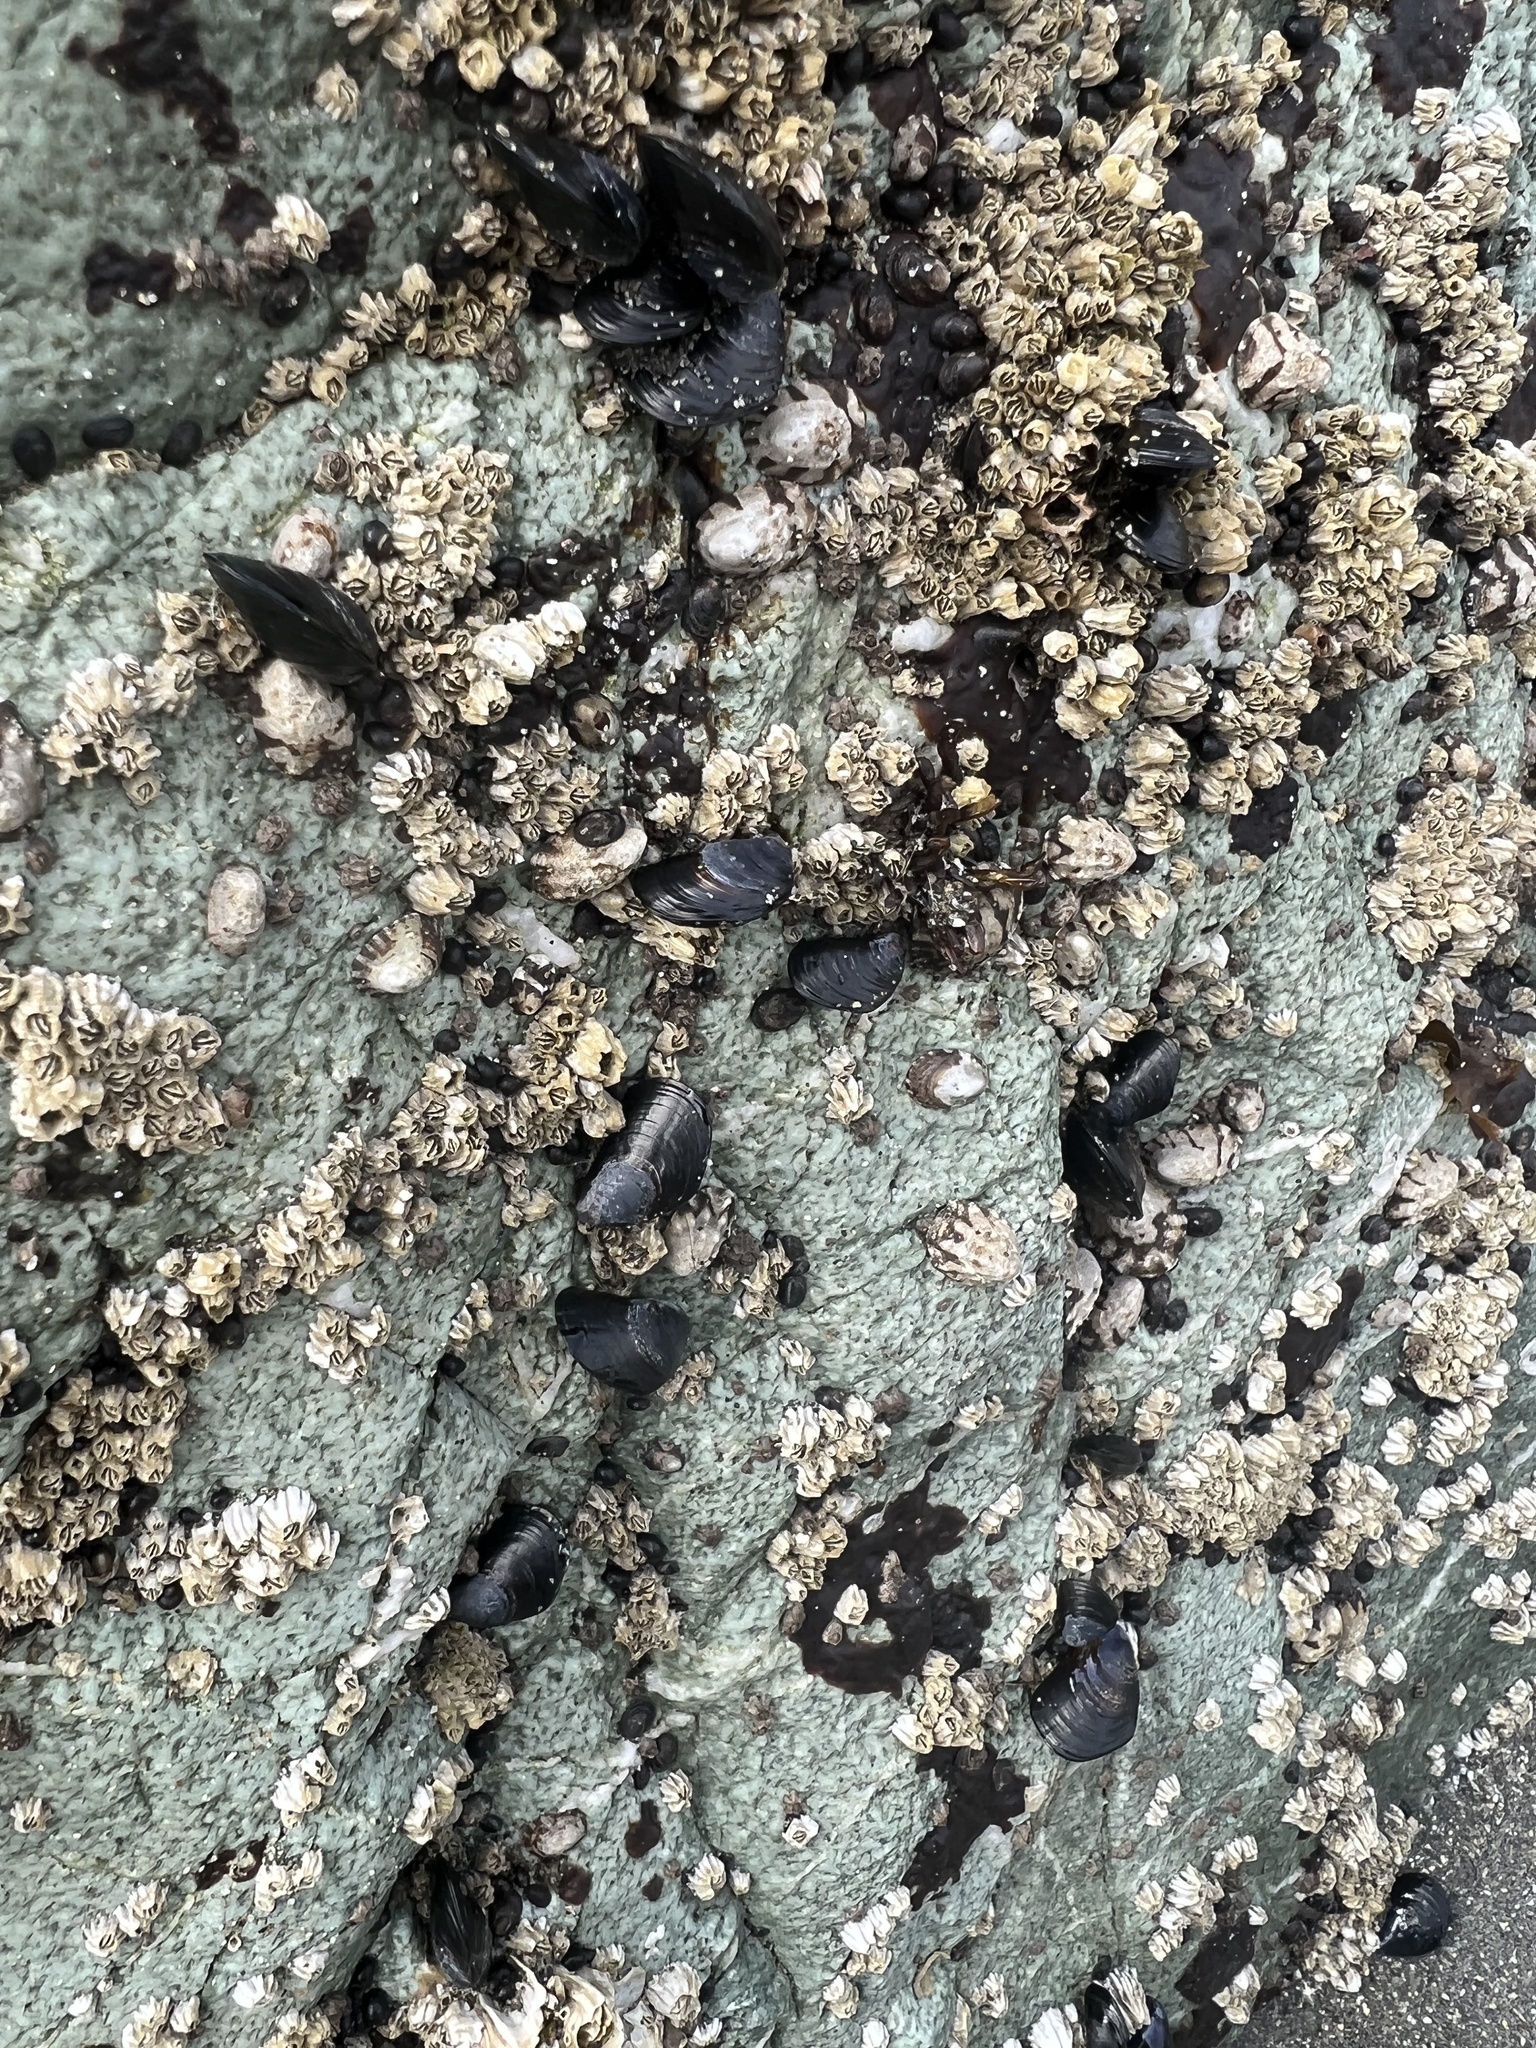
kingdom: Animalia
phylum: Mollusca
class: Bivalvia
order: Mytilida
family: Mytilidae
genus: Mytilus
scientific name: Mytilus
